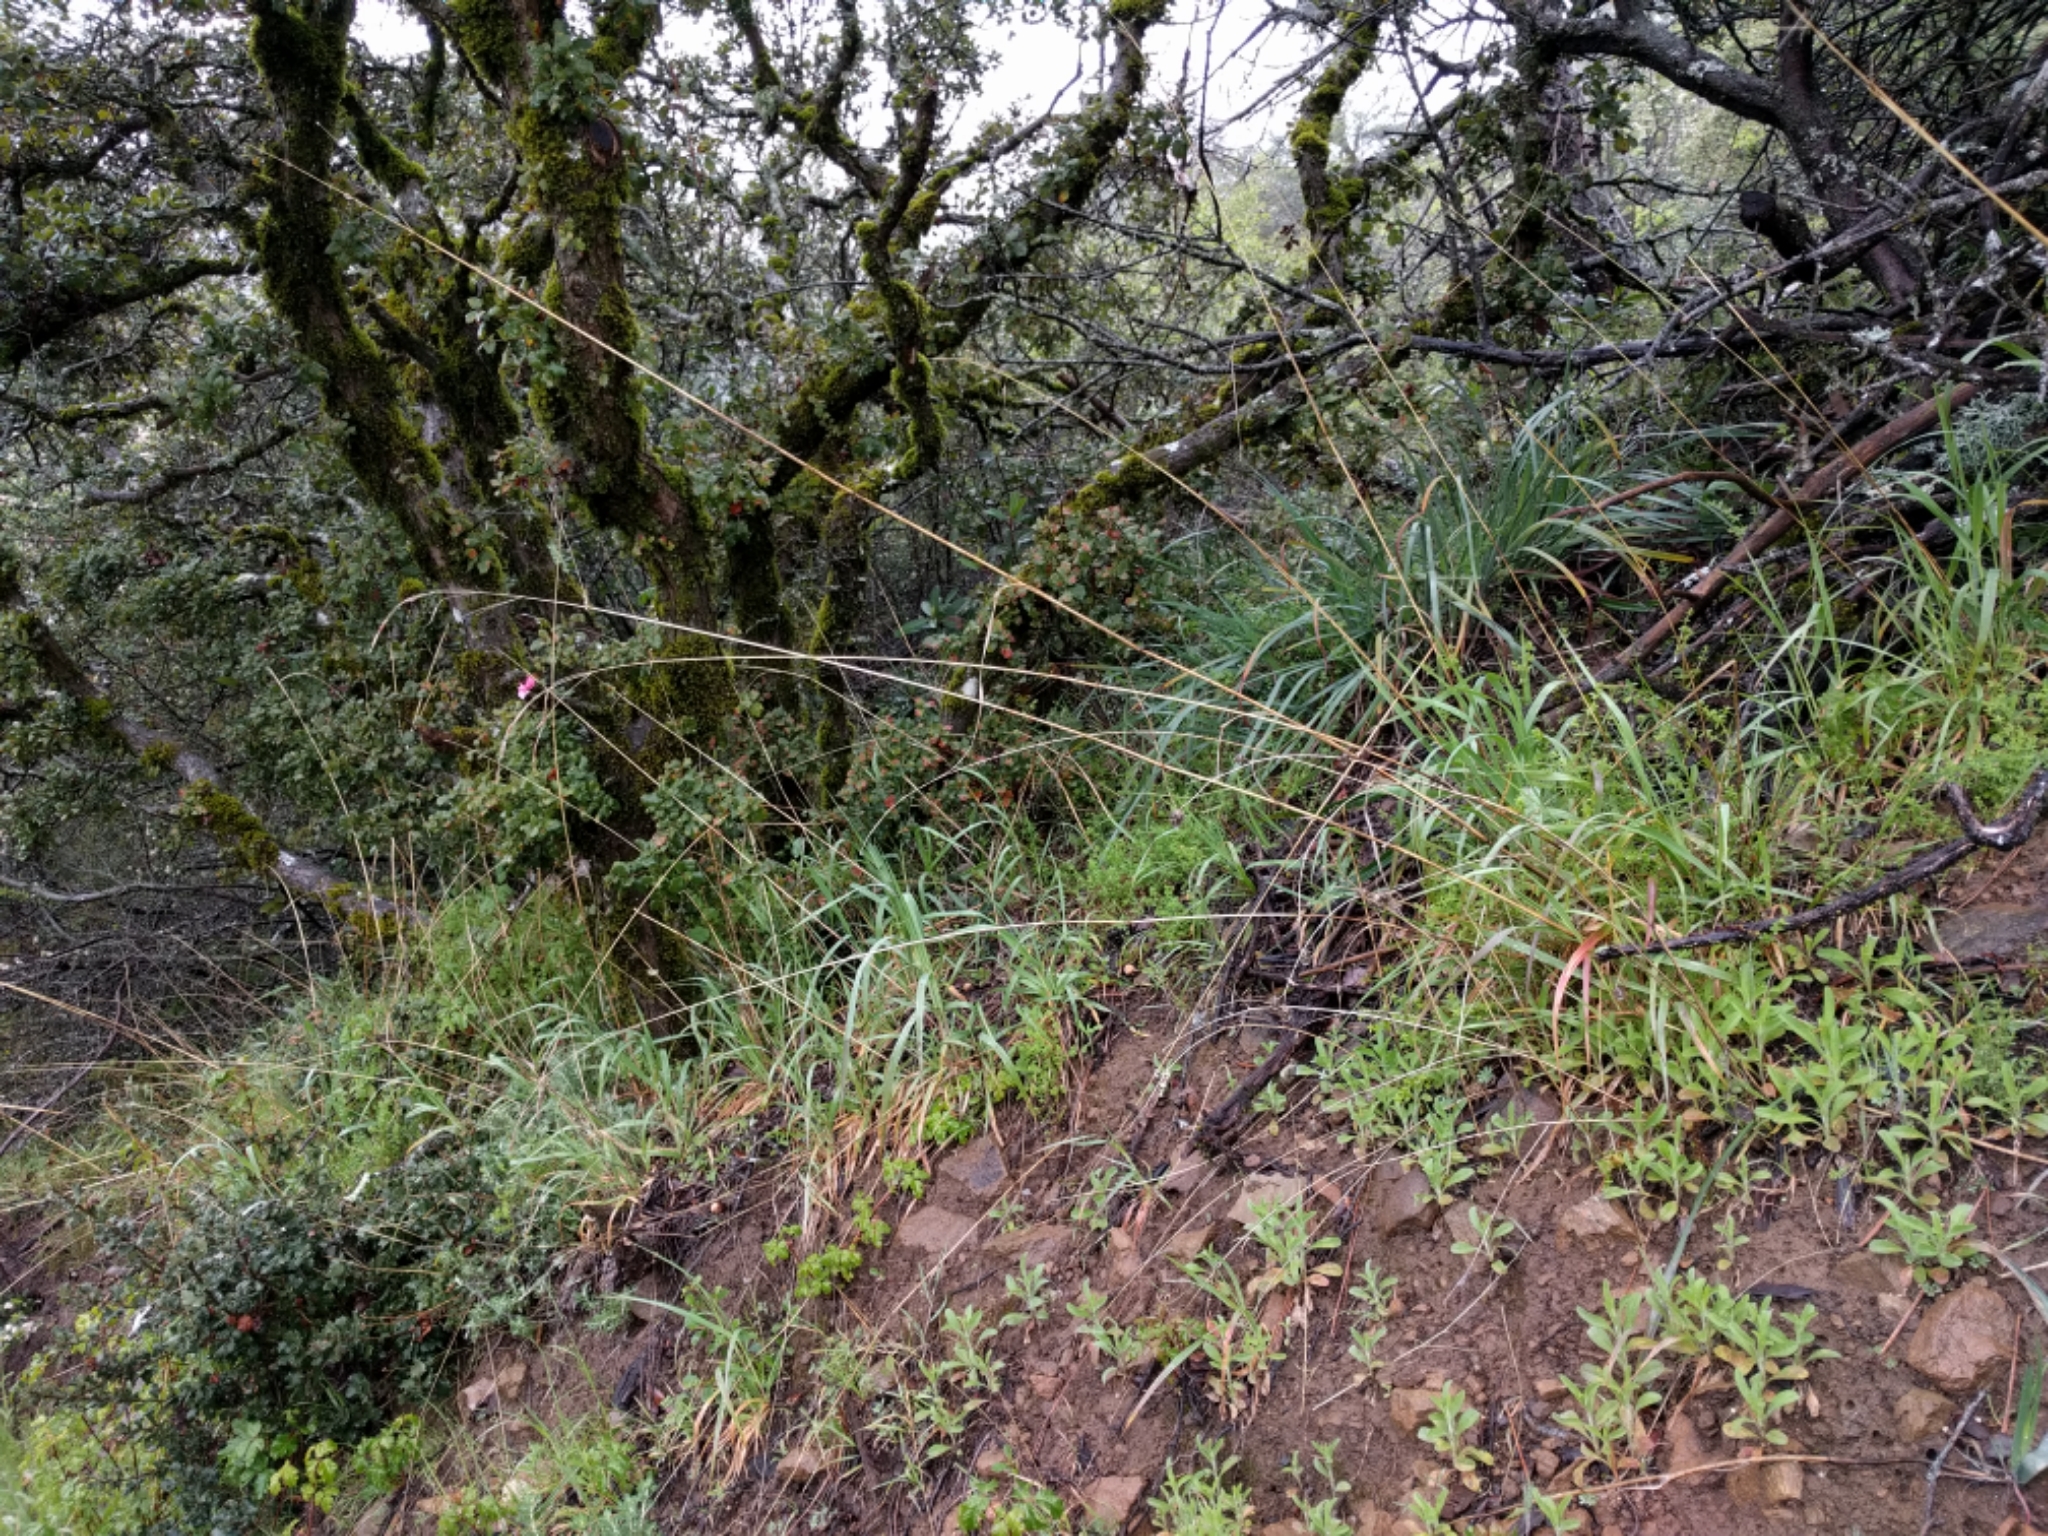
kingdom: Plantae
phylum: Tracheophyta
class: Liliopsida
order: Poales
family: Poaceae
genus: Bromus
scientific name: Bromus laevipes
